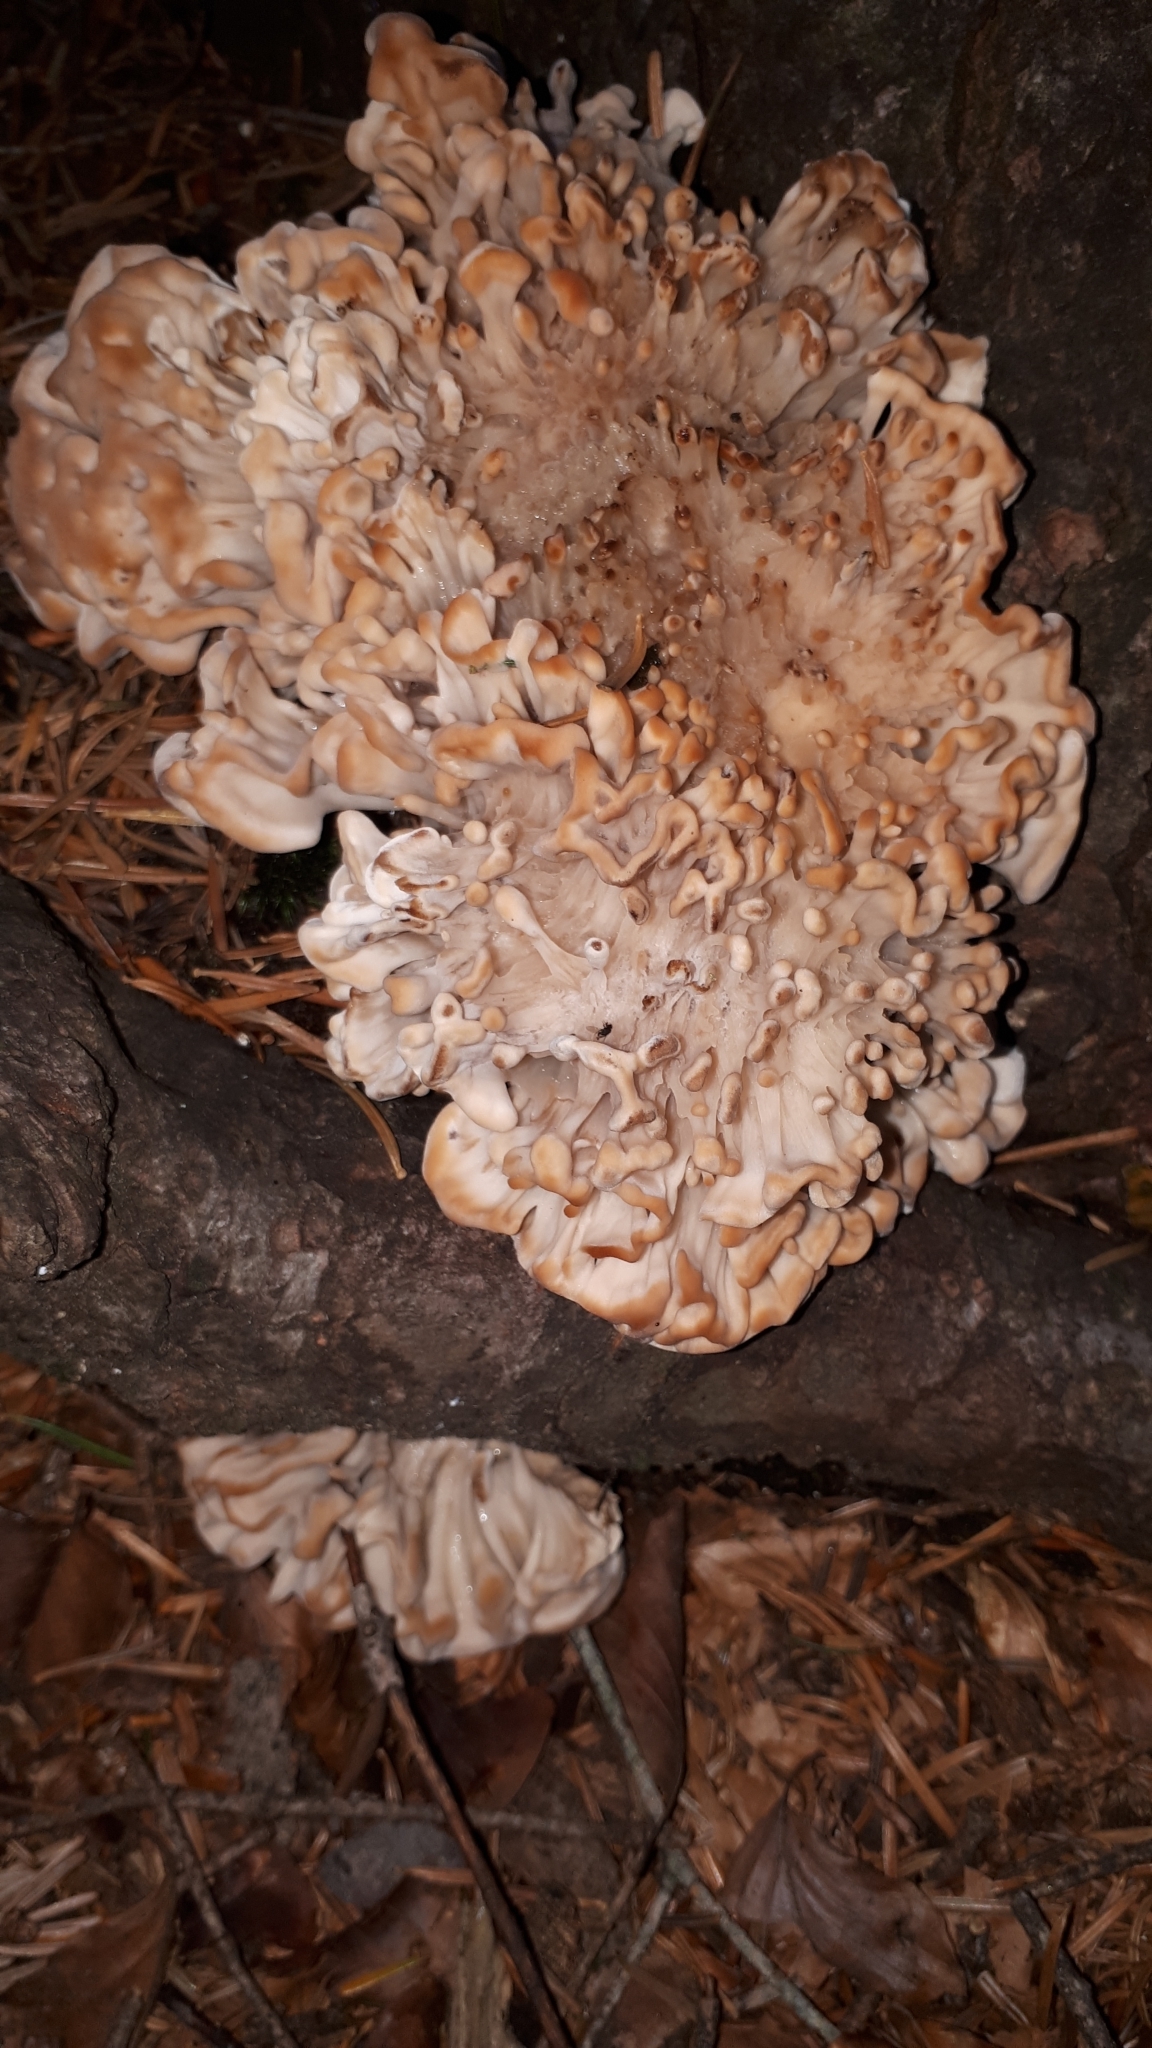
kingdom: Fungi
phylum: Basidiomycota
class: Agaricomycetes
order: Polyporales
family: Sparassidaceae
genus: Sparassis
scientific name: Sparassis brevipes
